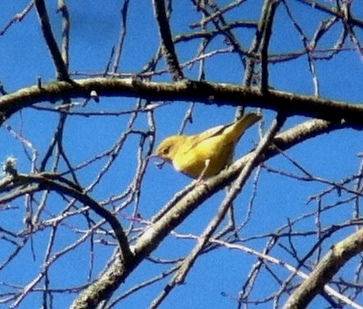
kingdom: Animalia
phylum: Chordata
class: Aves
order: Passeriformes
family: Parulidae
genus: Setophaga
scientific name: Setophaga petechia
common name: Yellow warbler
